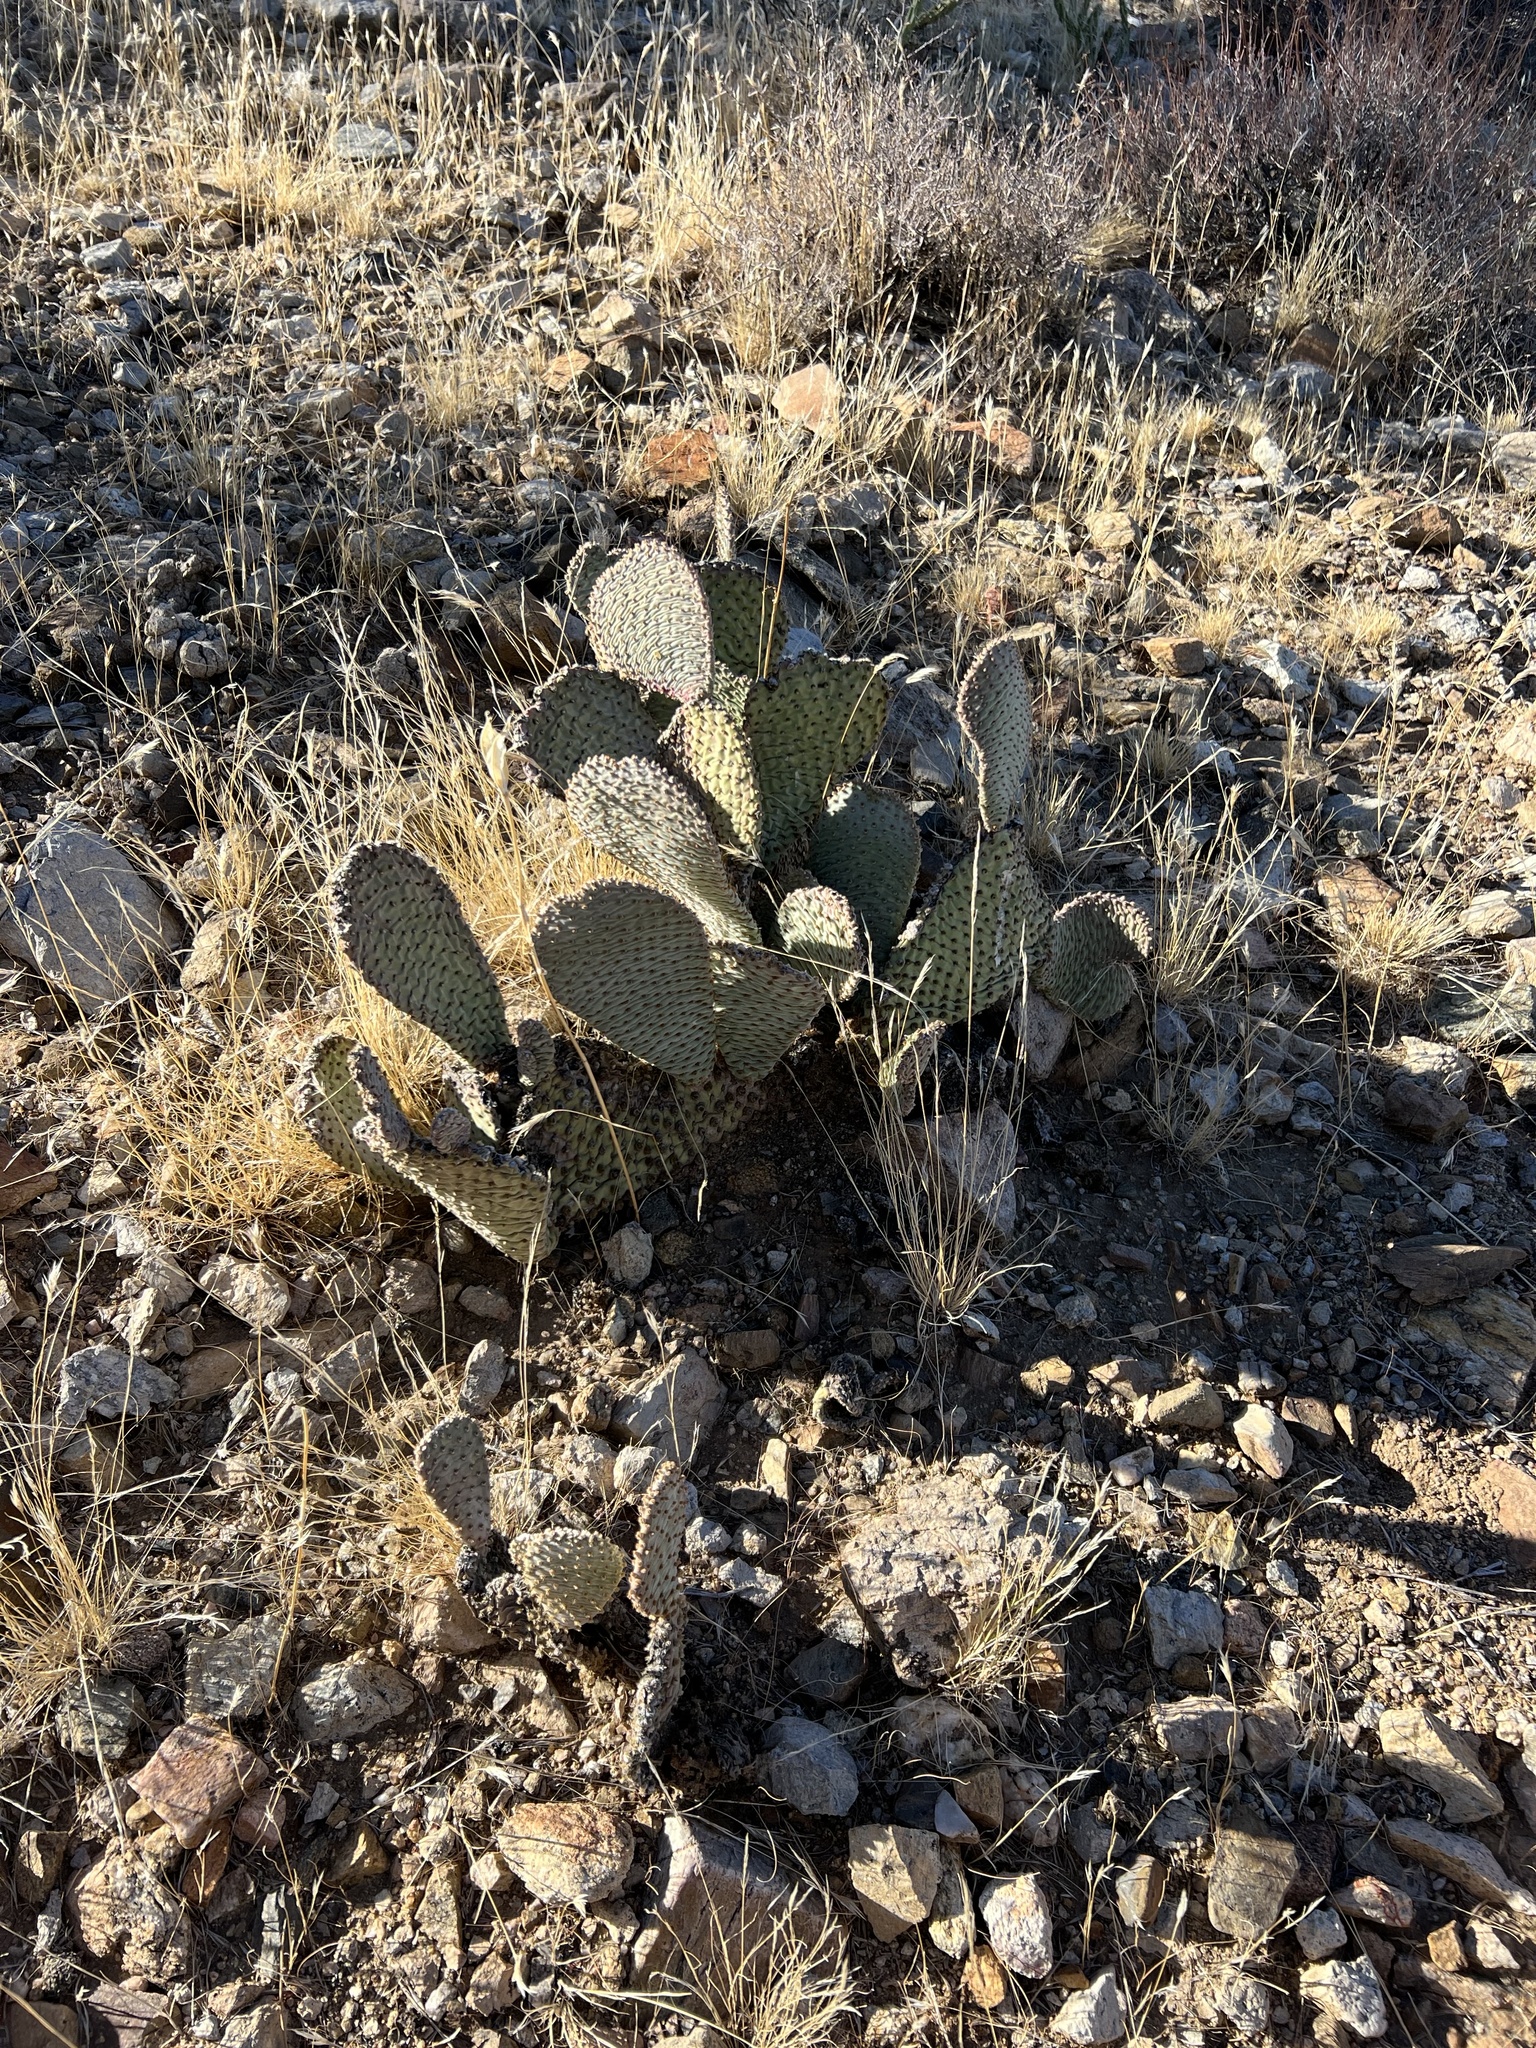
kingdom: Plantae
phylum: Tracheophyta
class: Magnoliopsida
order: Caryophyllales
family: Cactaceae
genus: Opuntia
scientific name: Opuntia basilaris
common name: Beavertail prickly-pear
